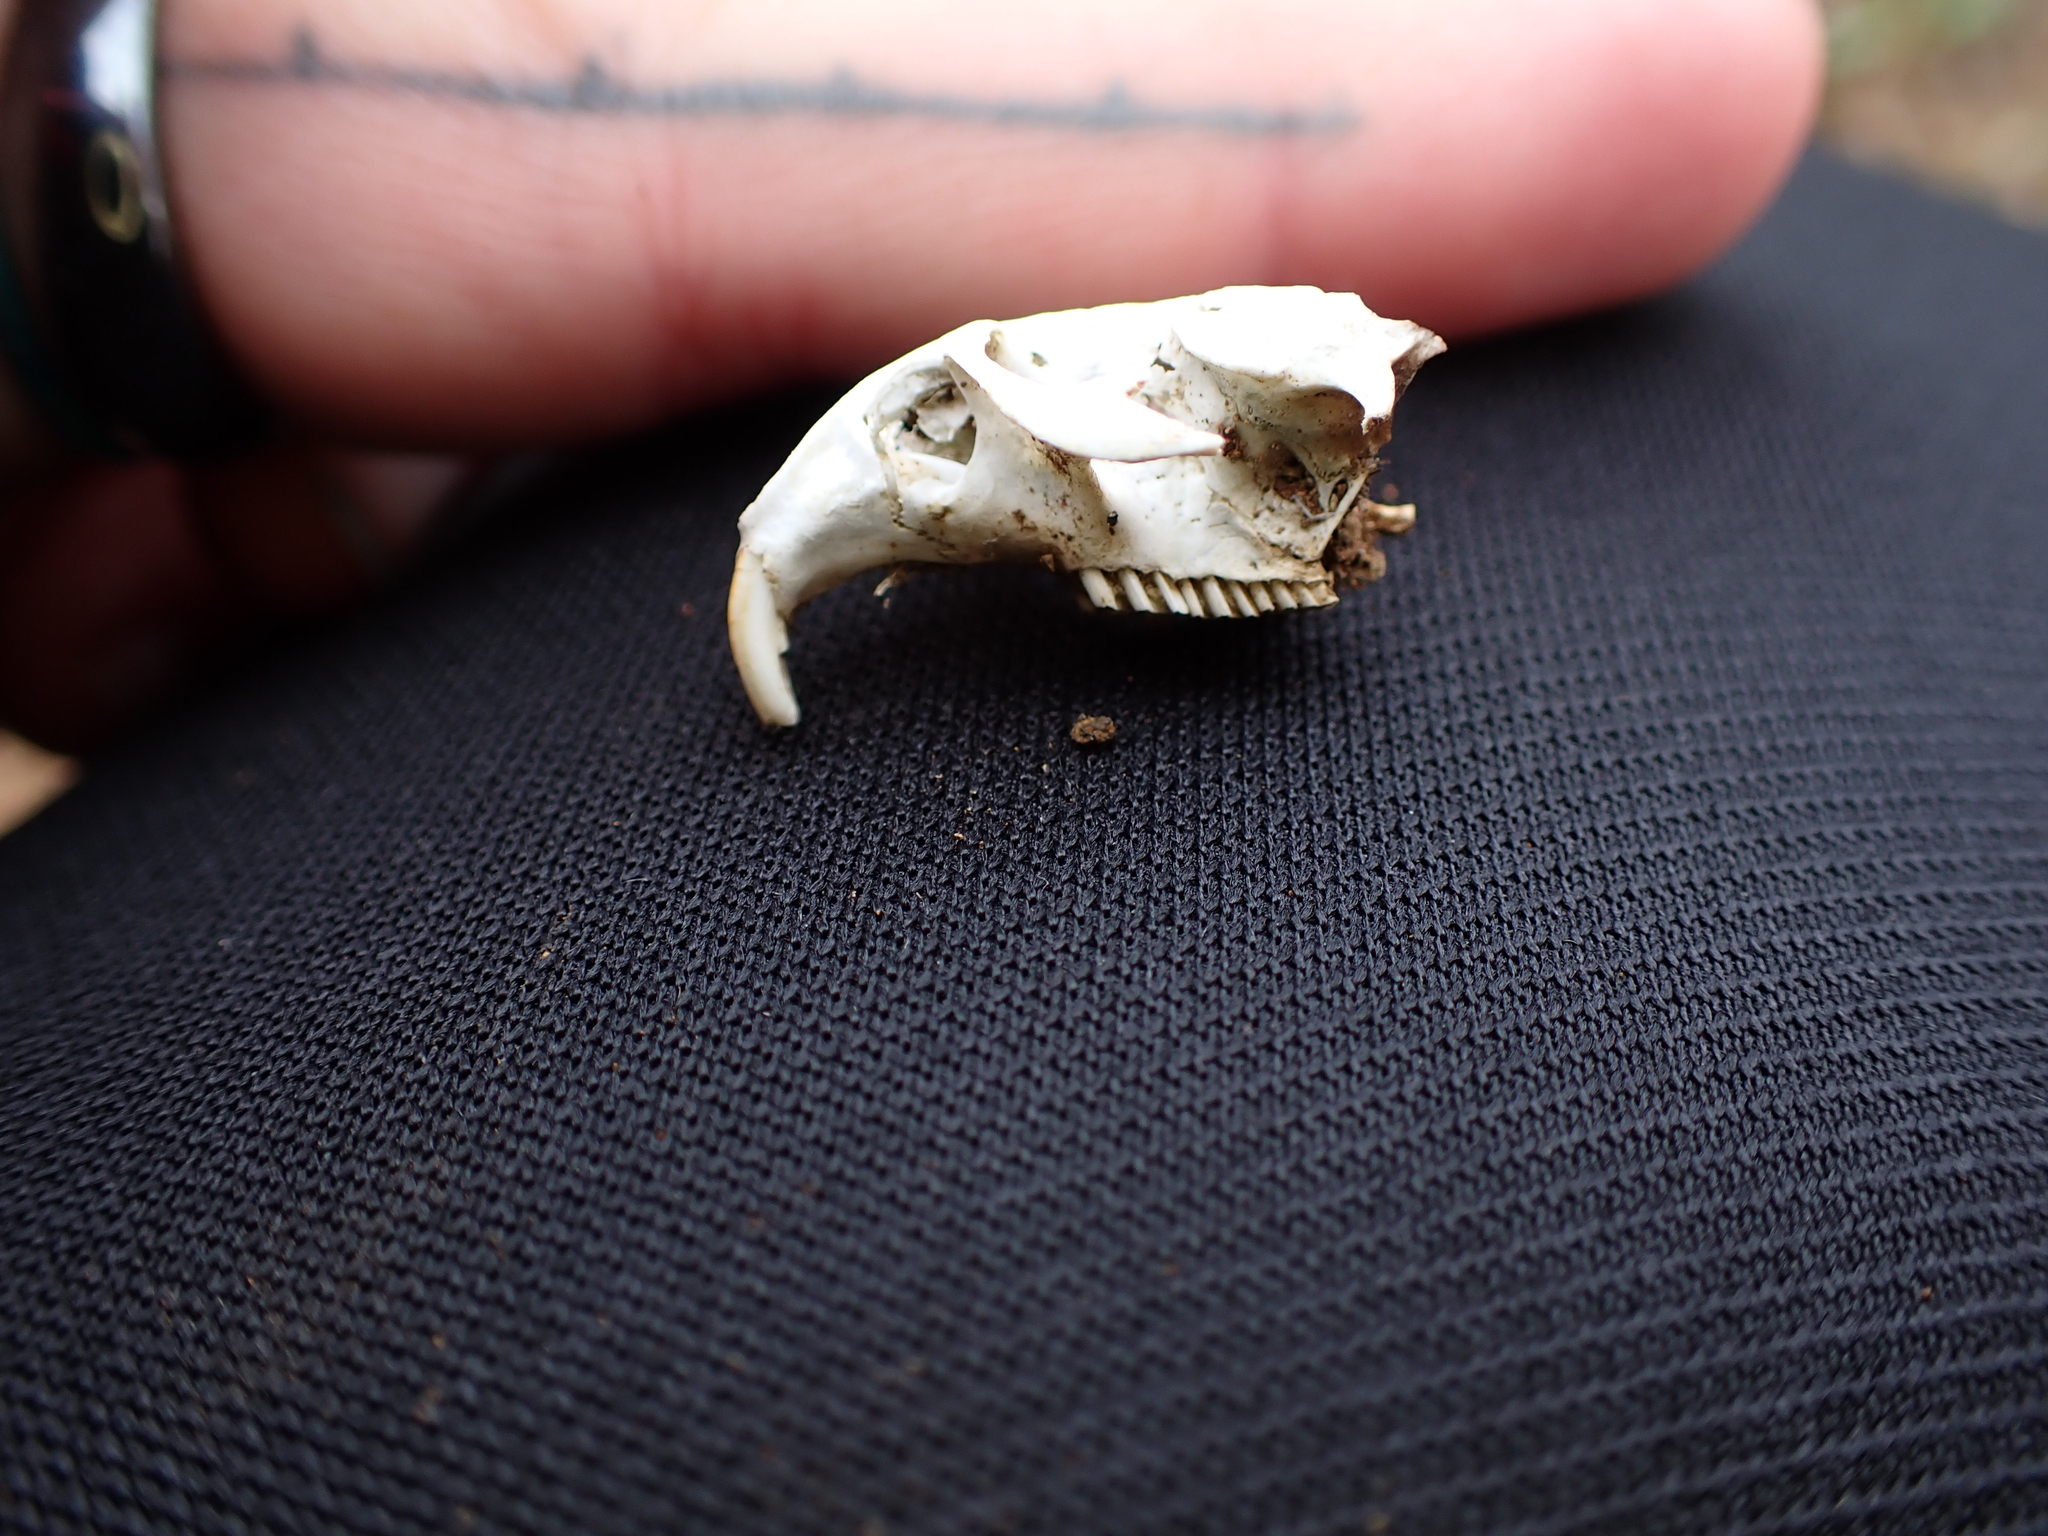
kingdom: Animalia
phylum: Chordata
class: Mammalia
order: Rodentia
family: Cricetidae
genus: Lemmus
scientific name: Lemmus trimucronatus
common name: Brown lemming
